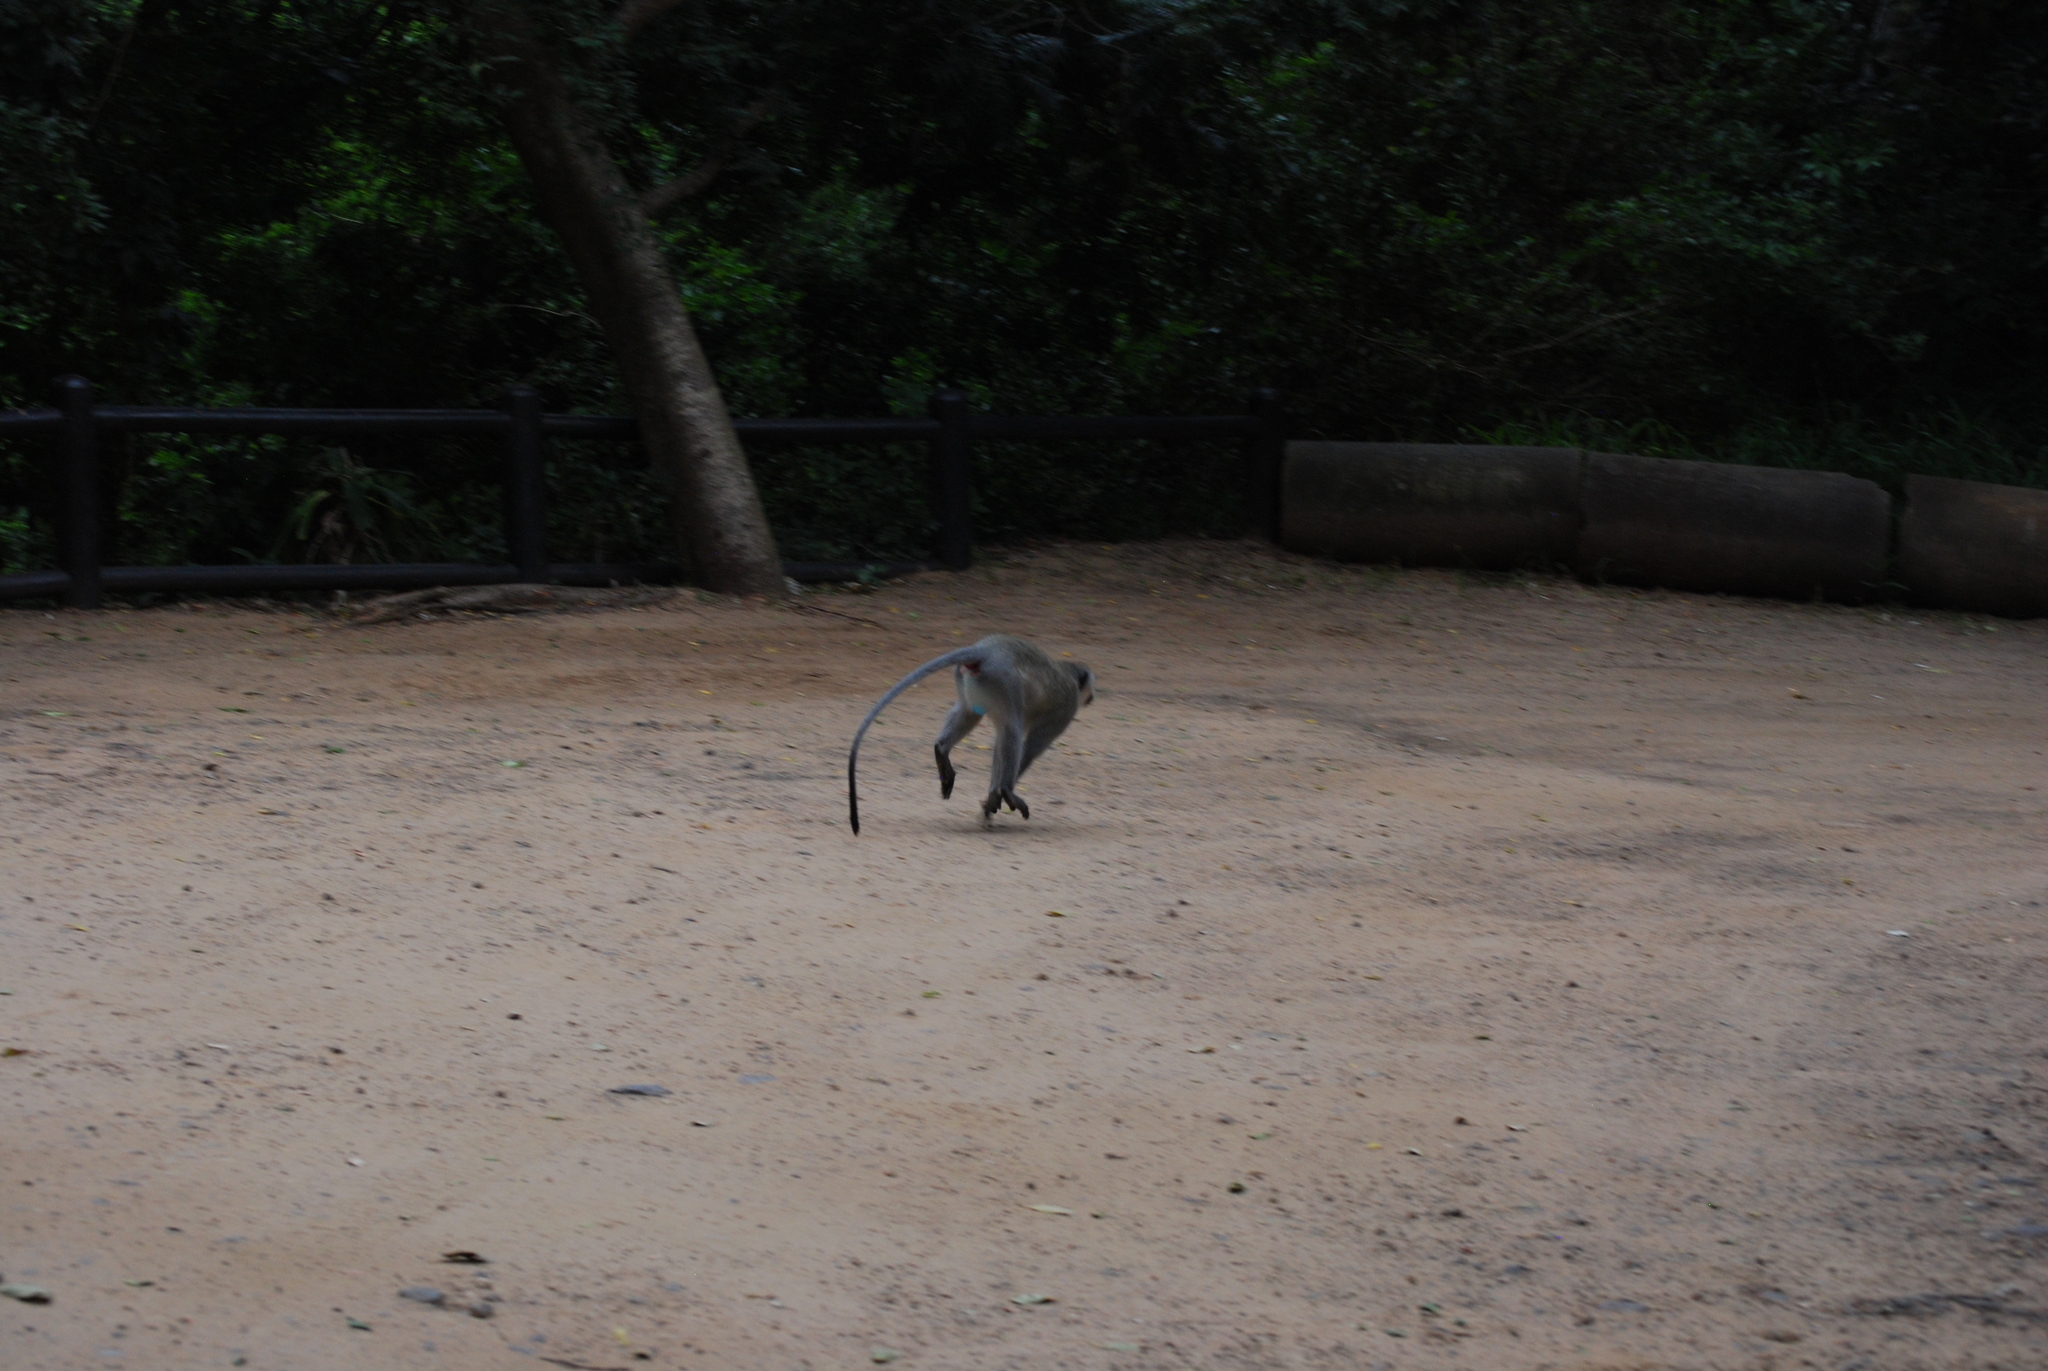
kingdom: Animalia
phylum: Chordata
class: Mammalia
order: Primates
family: Cercopithecidae
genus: Chlorocebus
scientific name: Chlorocebus pygerythrus
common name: Vervet monkey
